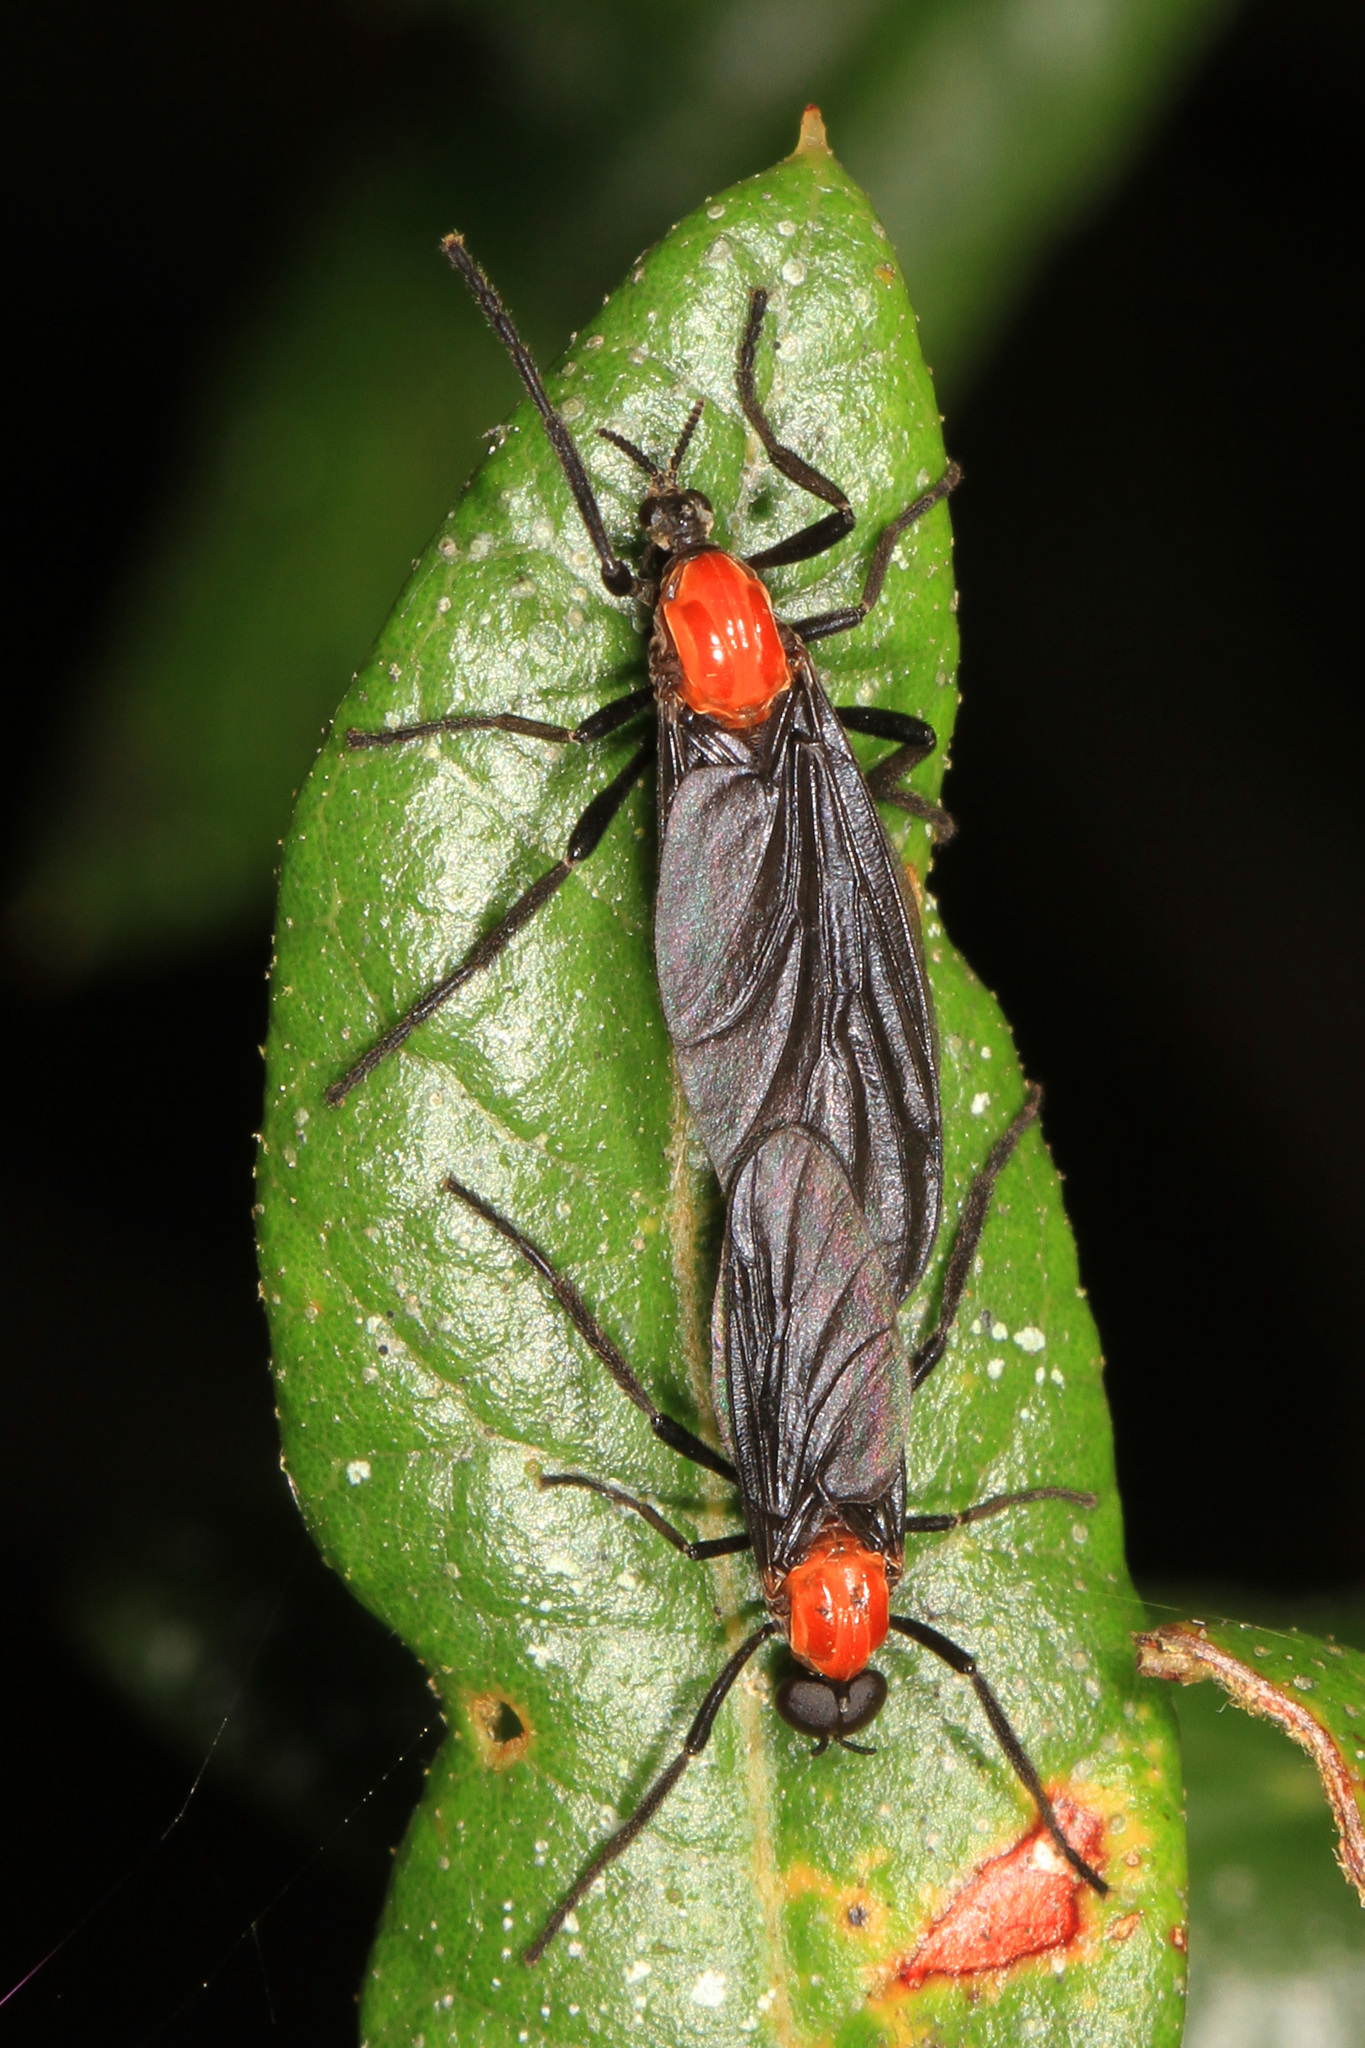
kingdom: Animalia
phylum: Arthropoda
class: Insecta
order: Diptera
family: Bibionidae
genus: Plecia
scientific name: Plecia nearctica
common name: March fly
